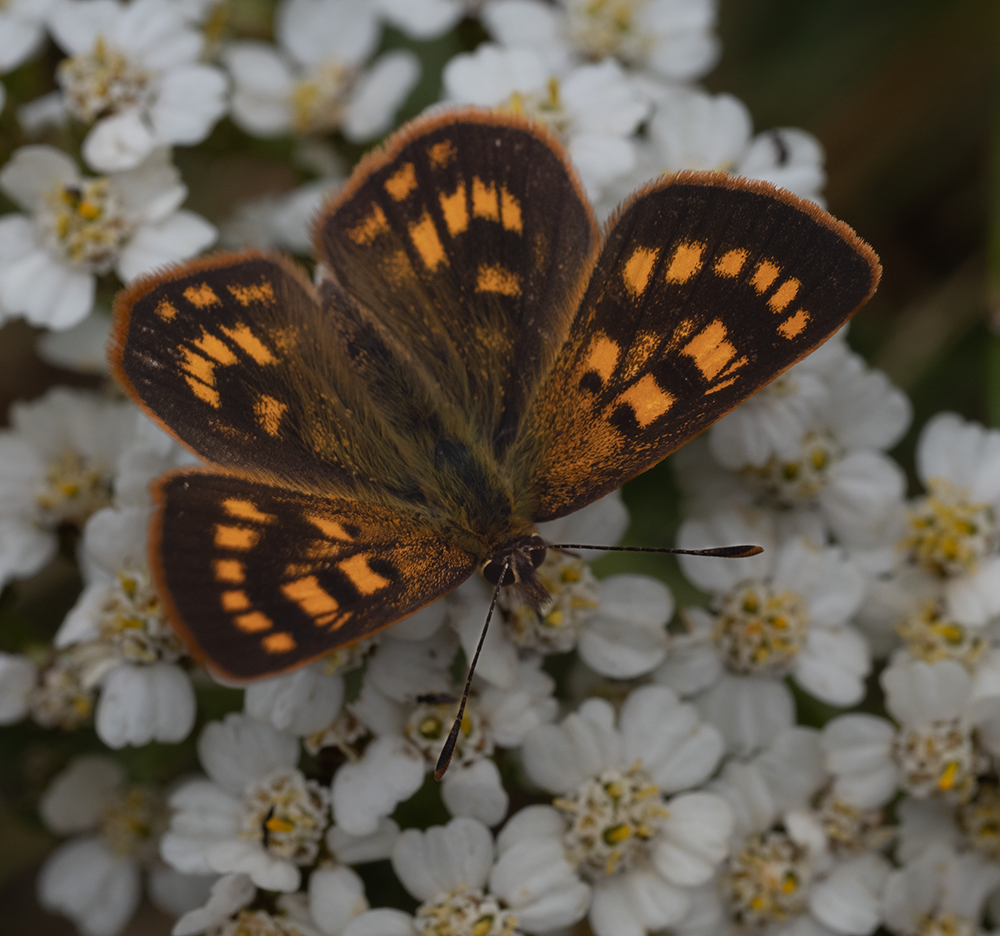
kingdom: Animalia
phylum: Arthropoda
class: Insecta
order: Lepidoptera
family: Lycaenidae
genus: Lycaena
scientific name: Lycaena feredayi
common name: Glade copper
